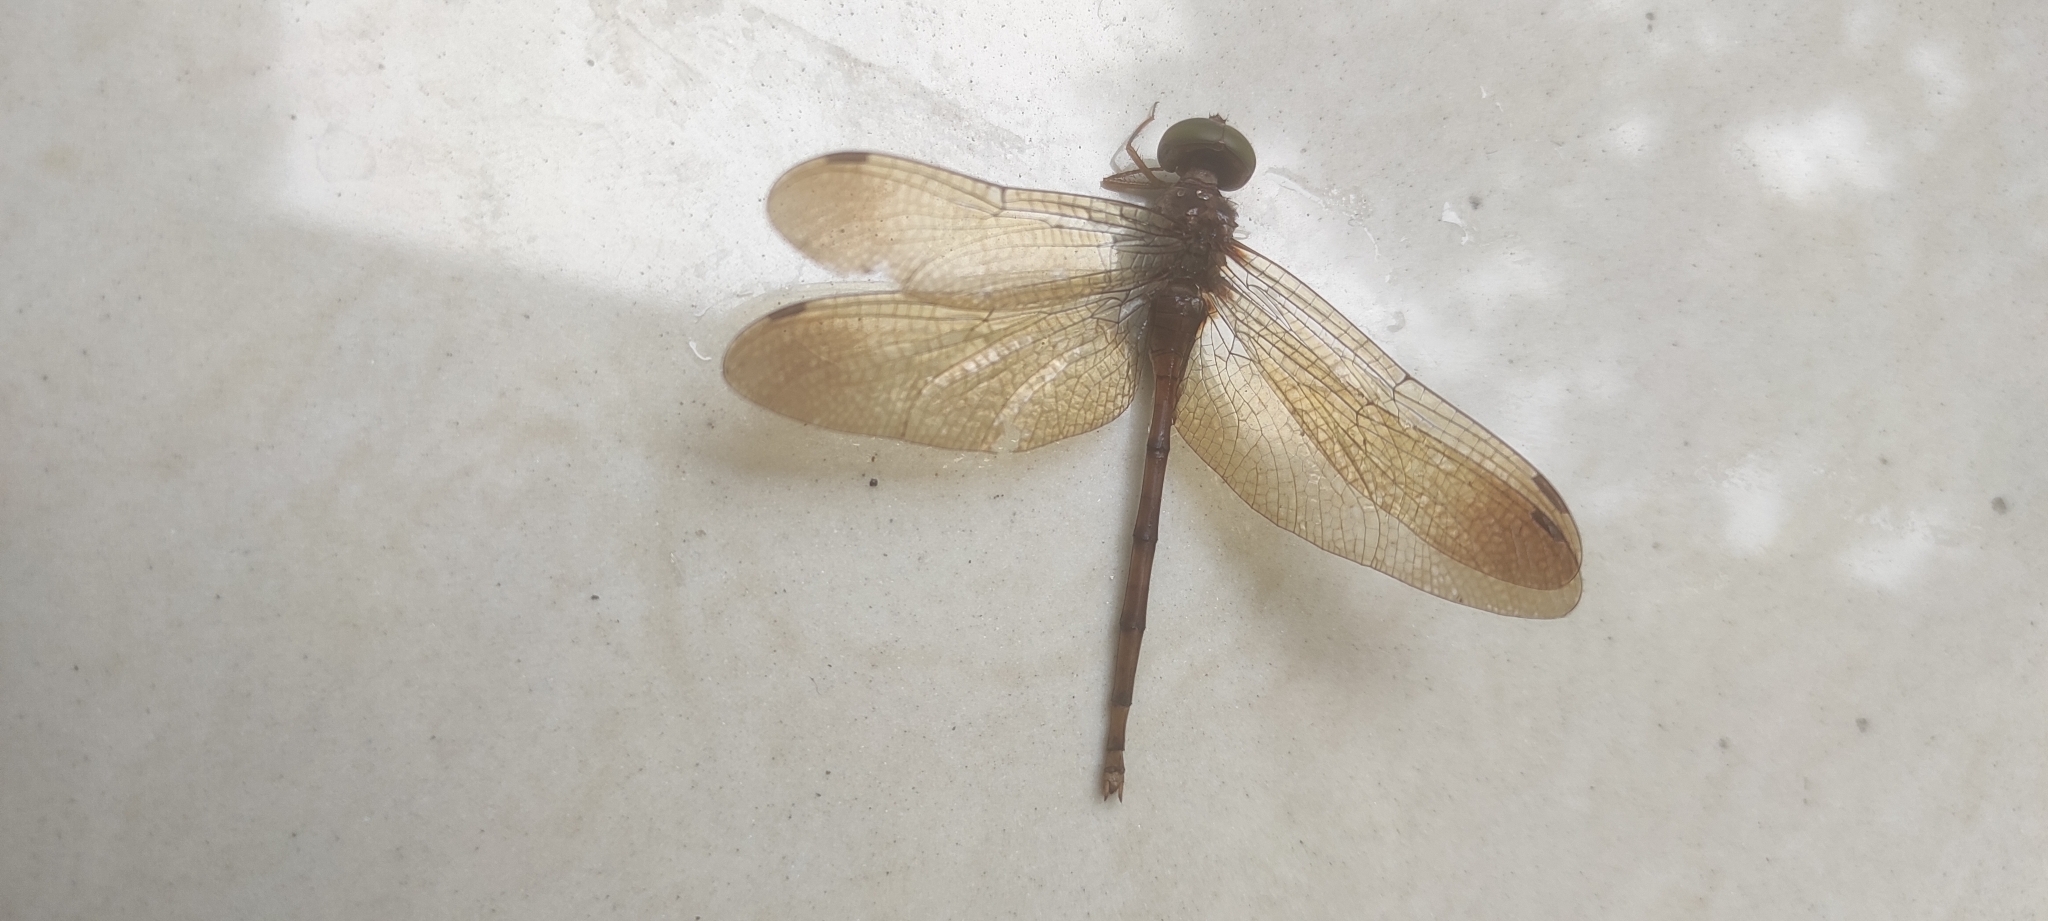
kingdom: Animalia
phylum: Arthropoda
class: Insecta
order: Odonata
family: Libellulidae
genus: Zyxomma
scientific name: Zyxomma petiolatum
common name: Dingy dusk-darter
